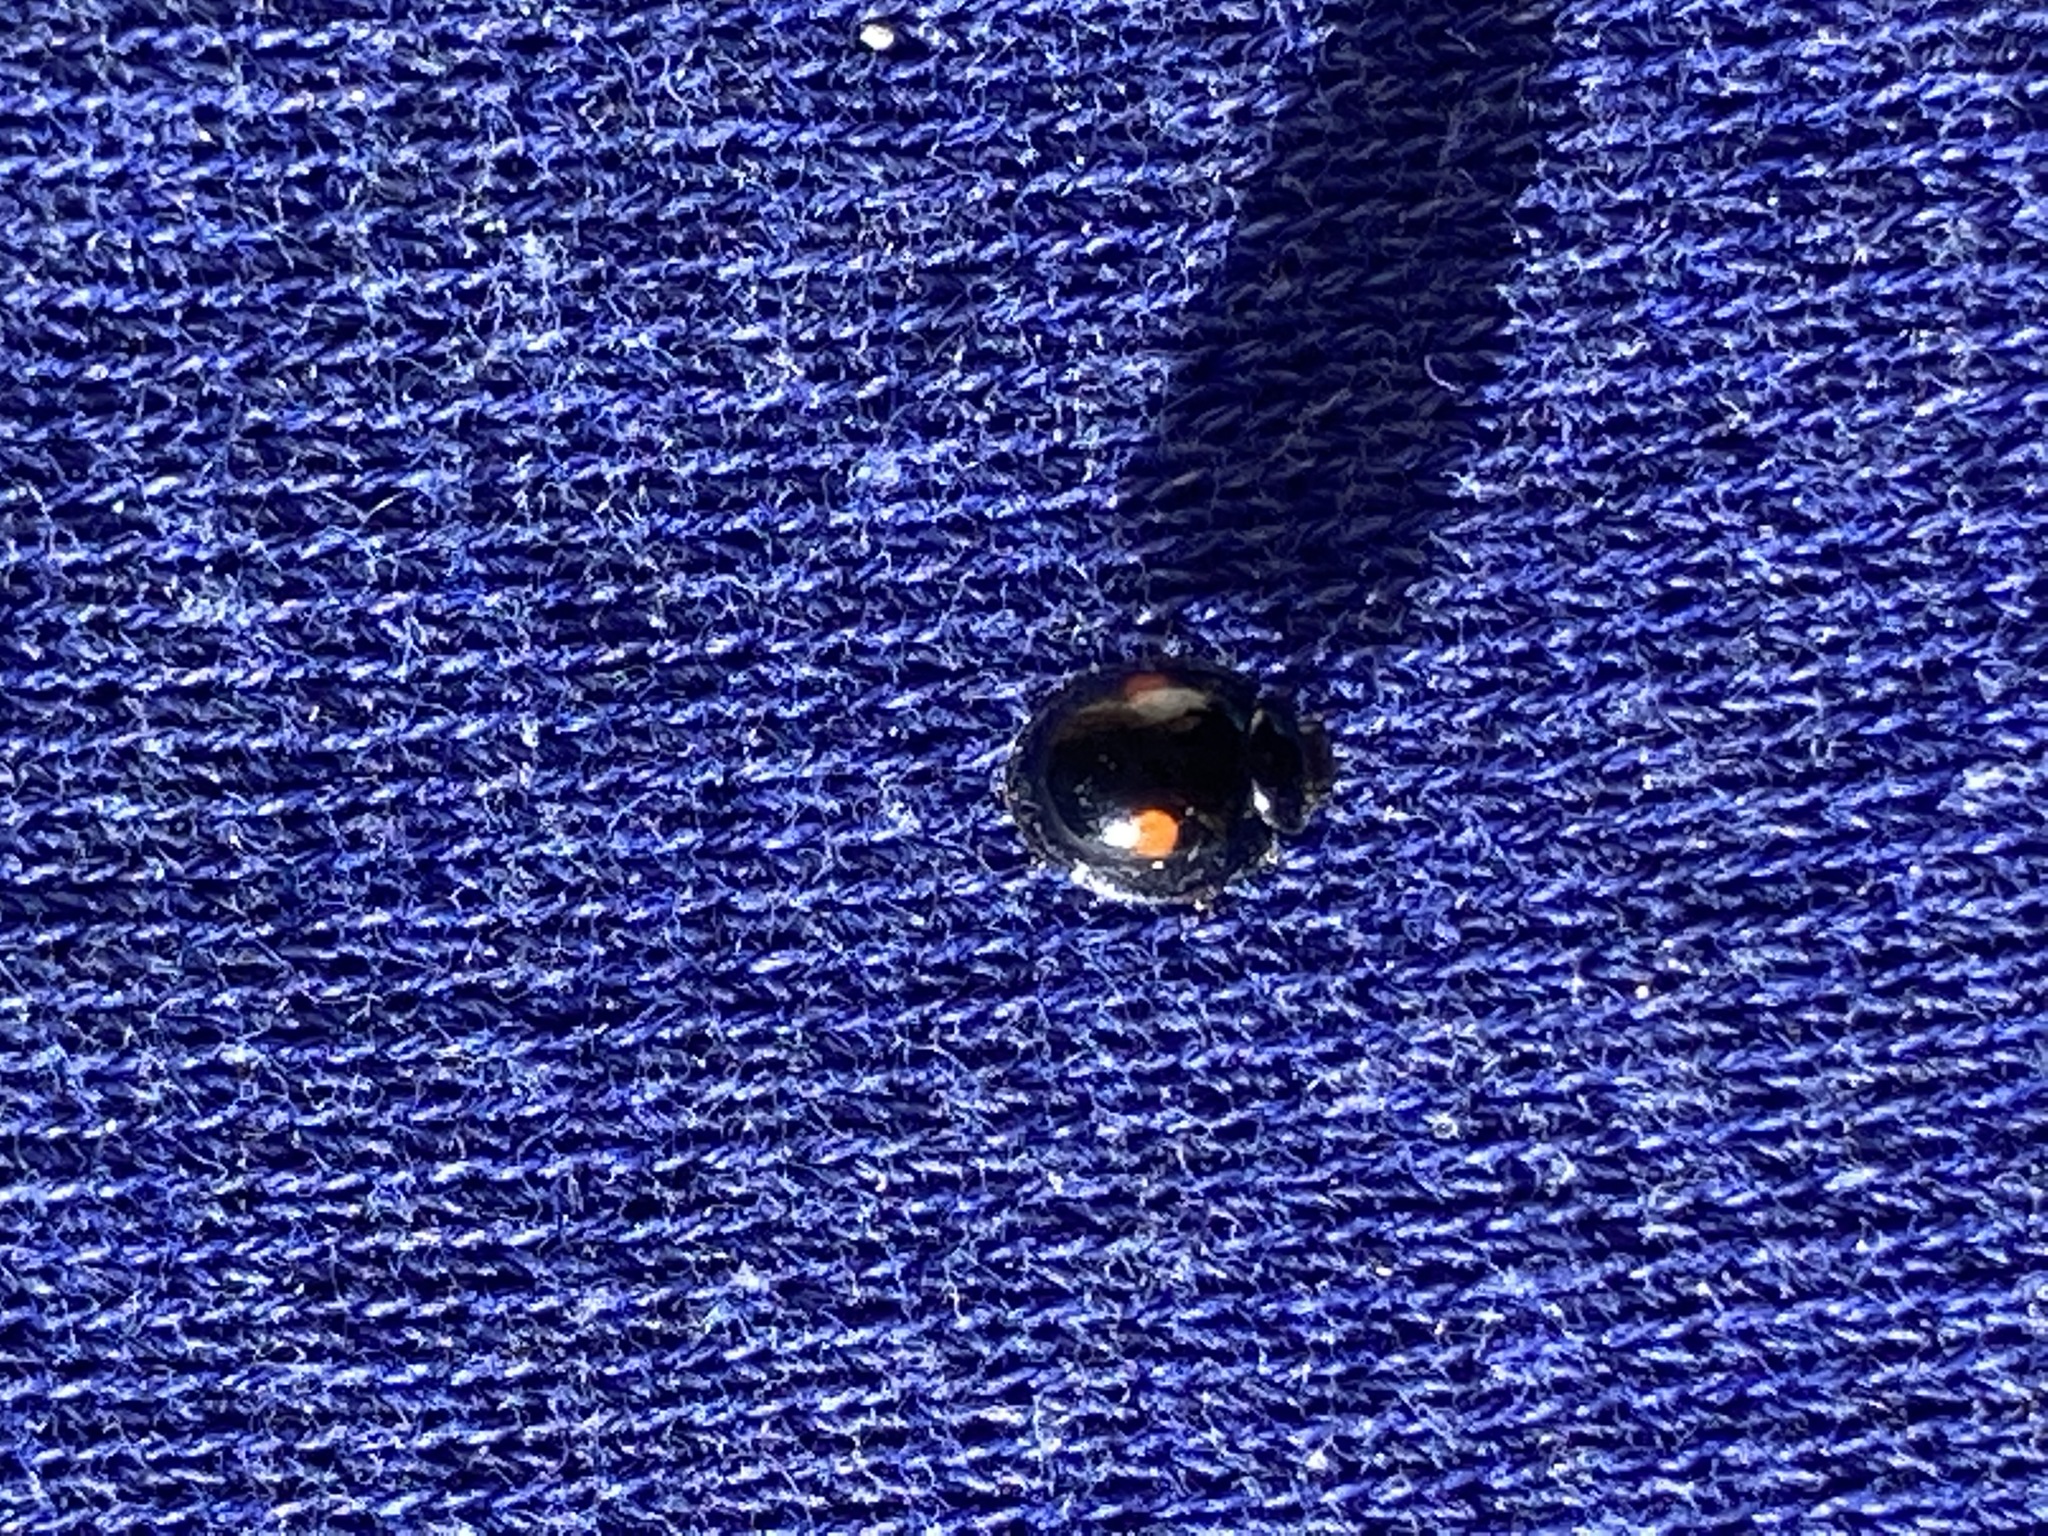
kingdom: Animalia
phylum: Arthropoda
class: Insecta
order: Coleoptera
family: Coccinellidae
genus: Chilocorus
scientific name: Chilocorus stigma
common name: Twicestabbed lady beetle
